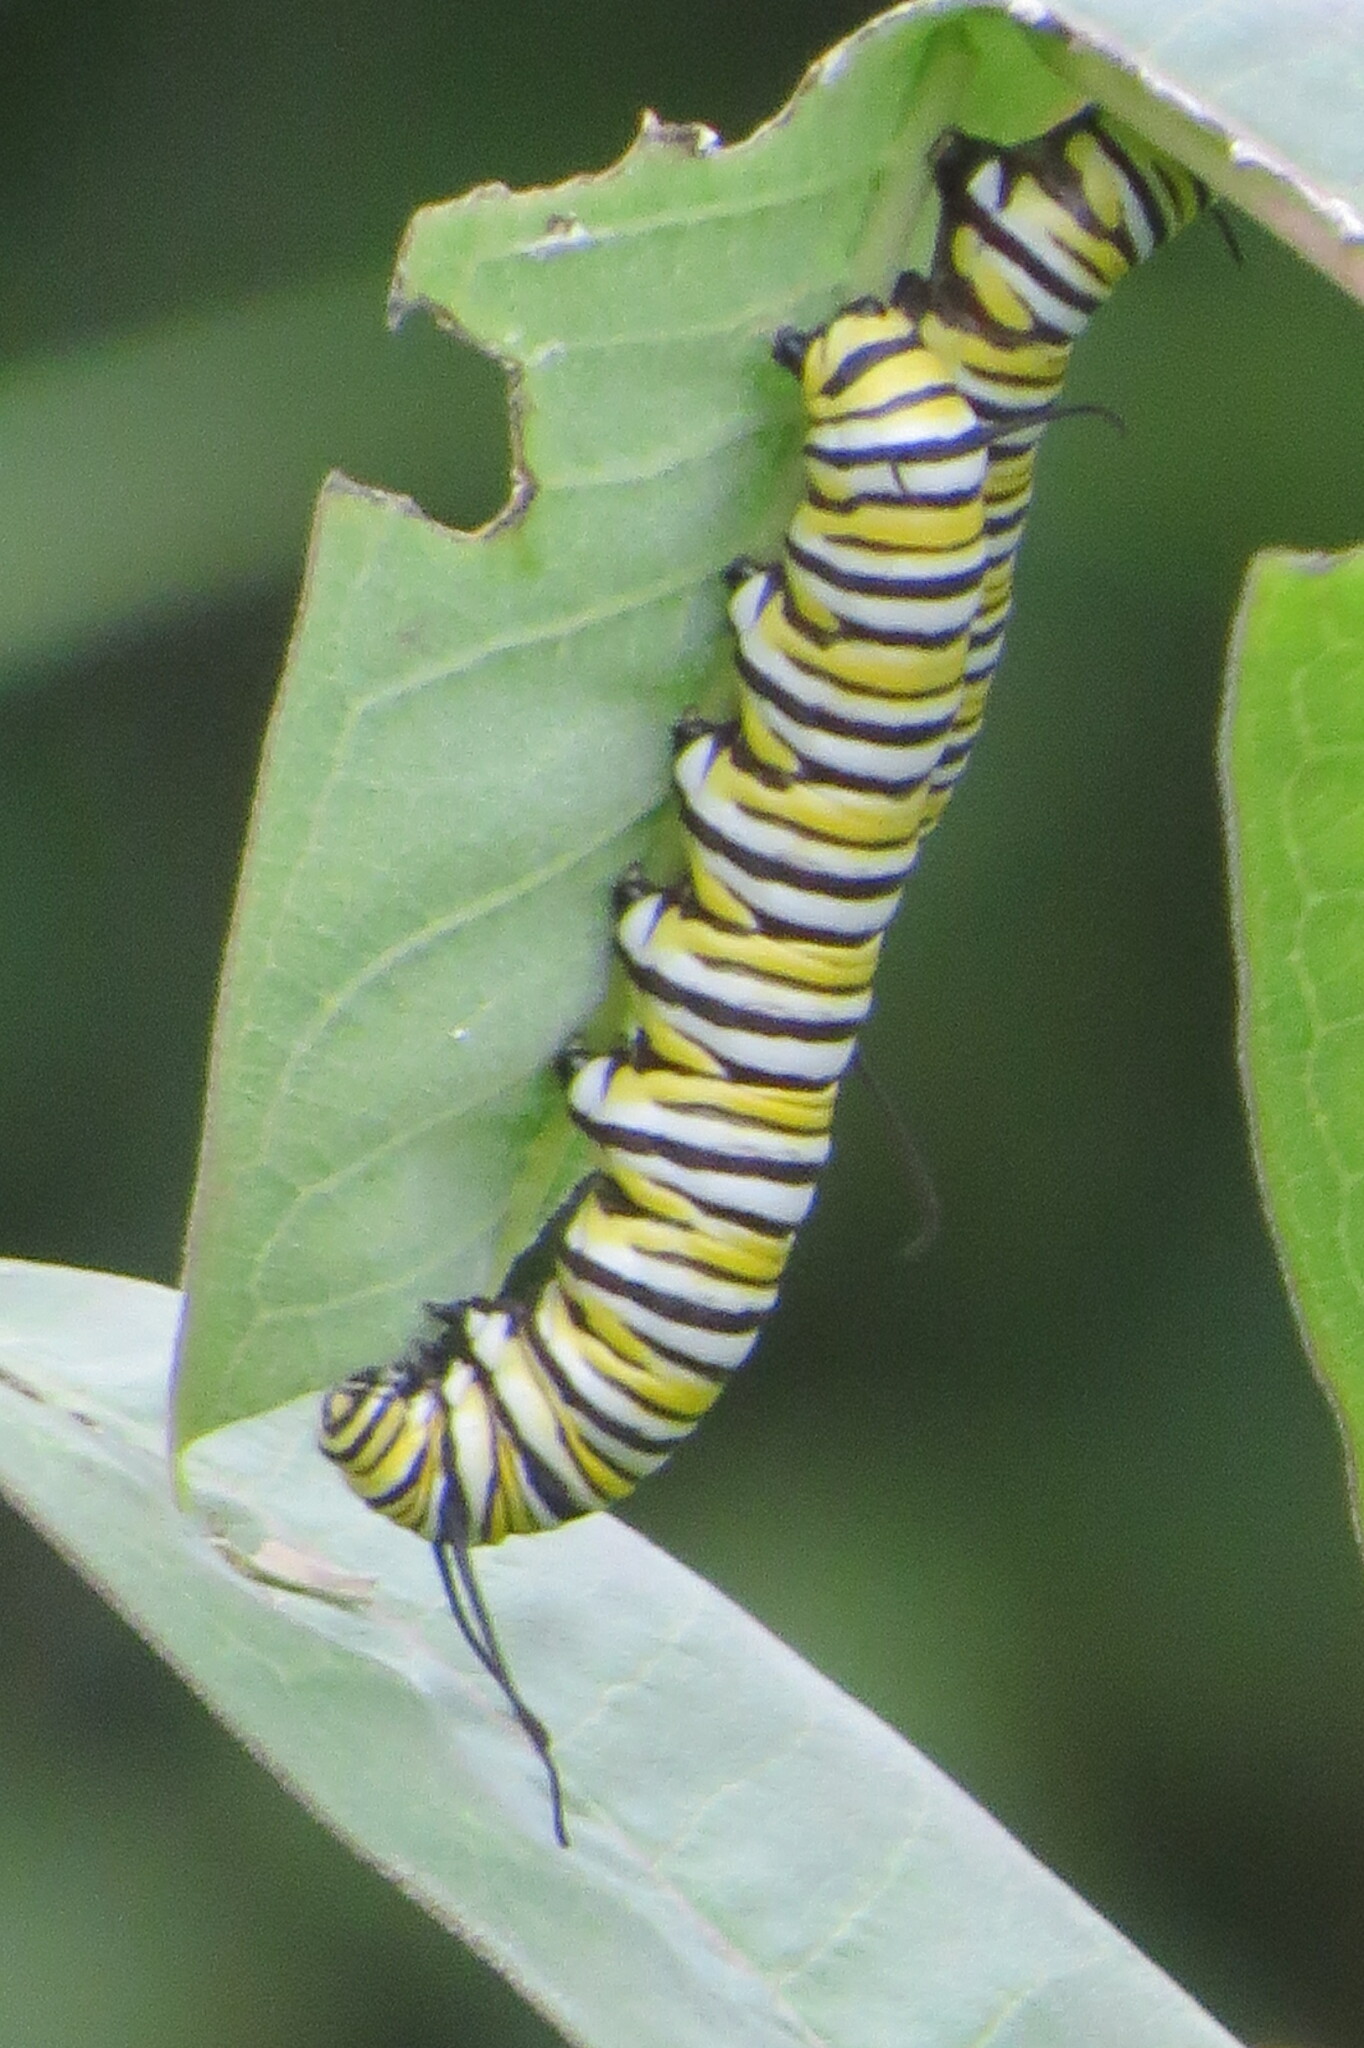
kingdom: Animalia
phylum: Arthropoda
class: Insecta
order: Lepidoptera
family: Nymphalidae
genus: Danaus
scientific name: Danaus plexippus
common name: Monarch
